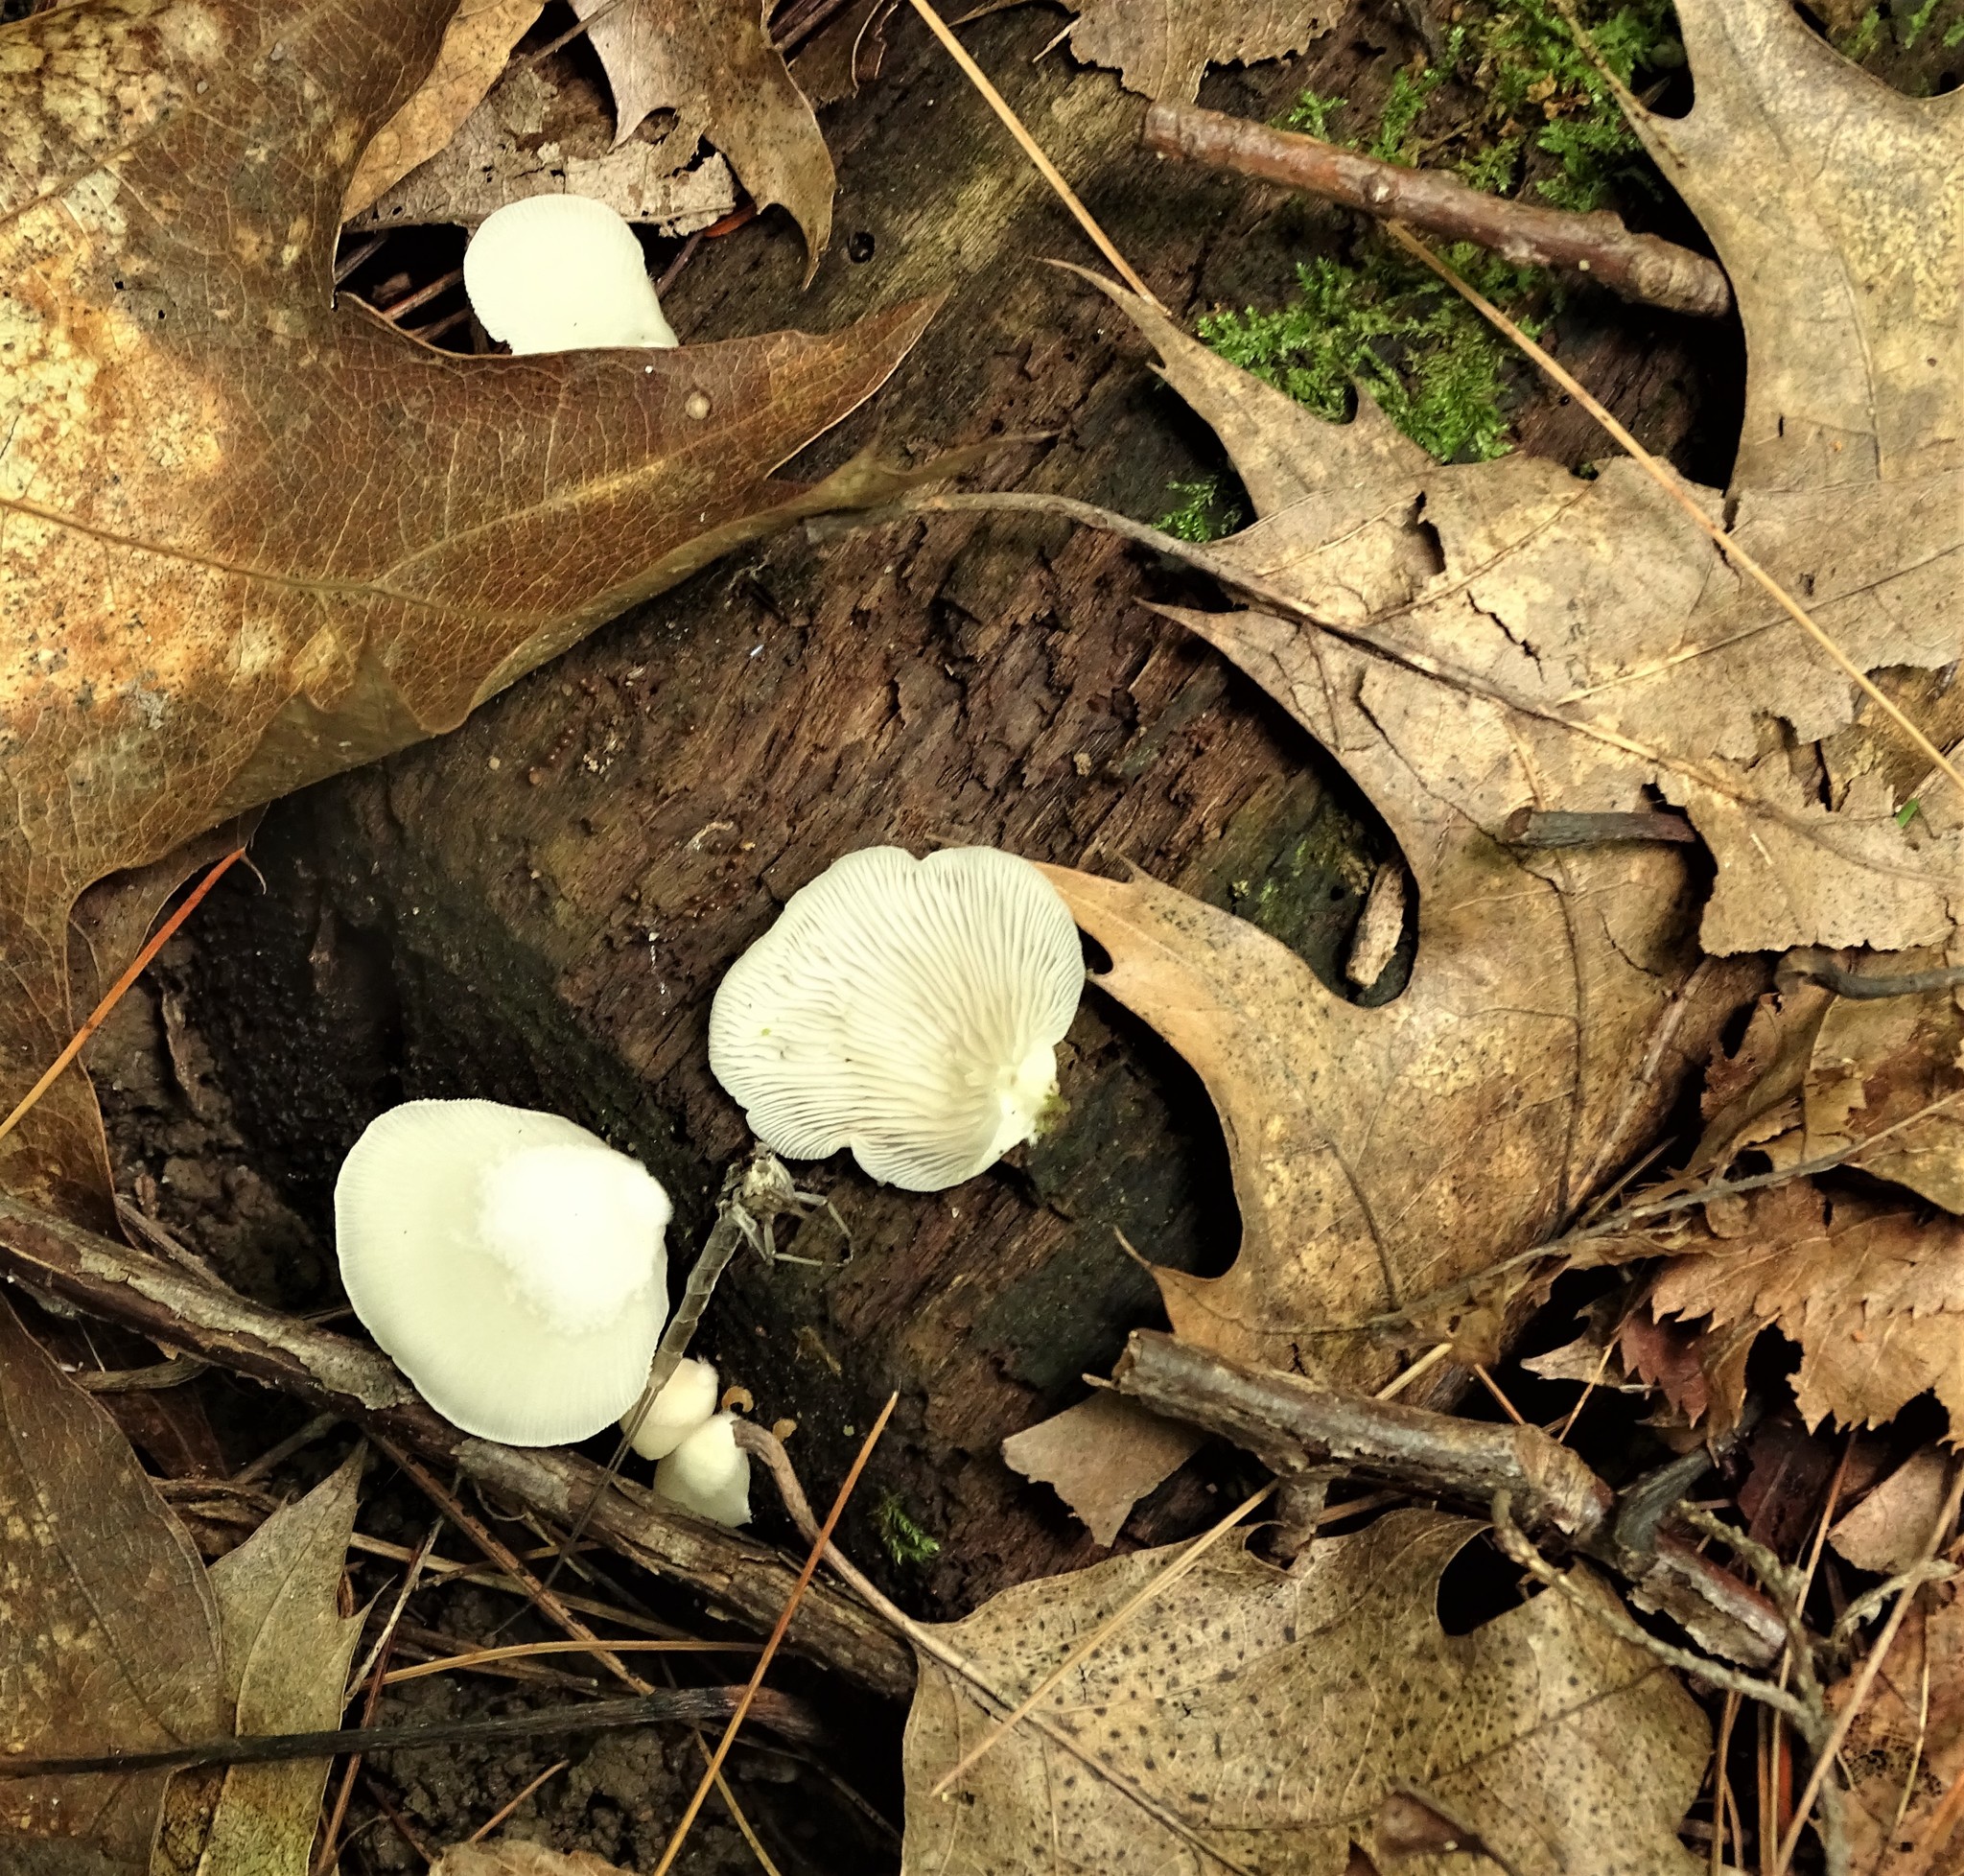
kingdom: Fungi
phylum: Basidiomycota
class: Agaricomycetes
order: Agaricales
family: Crepidotaceae
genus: Crepidotus
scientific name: Crepidotus applanatus
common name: Flat crep
